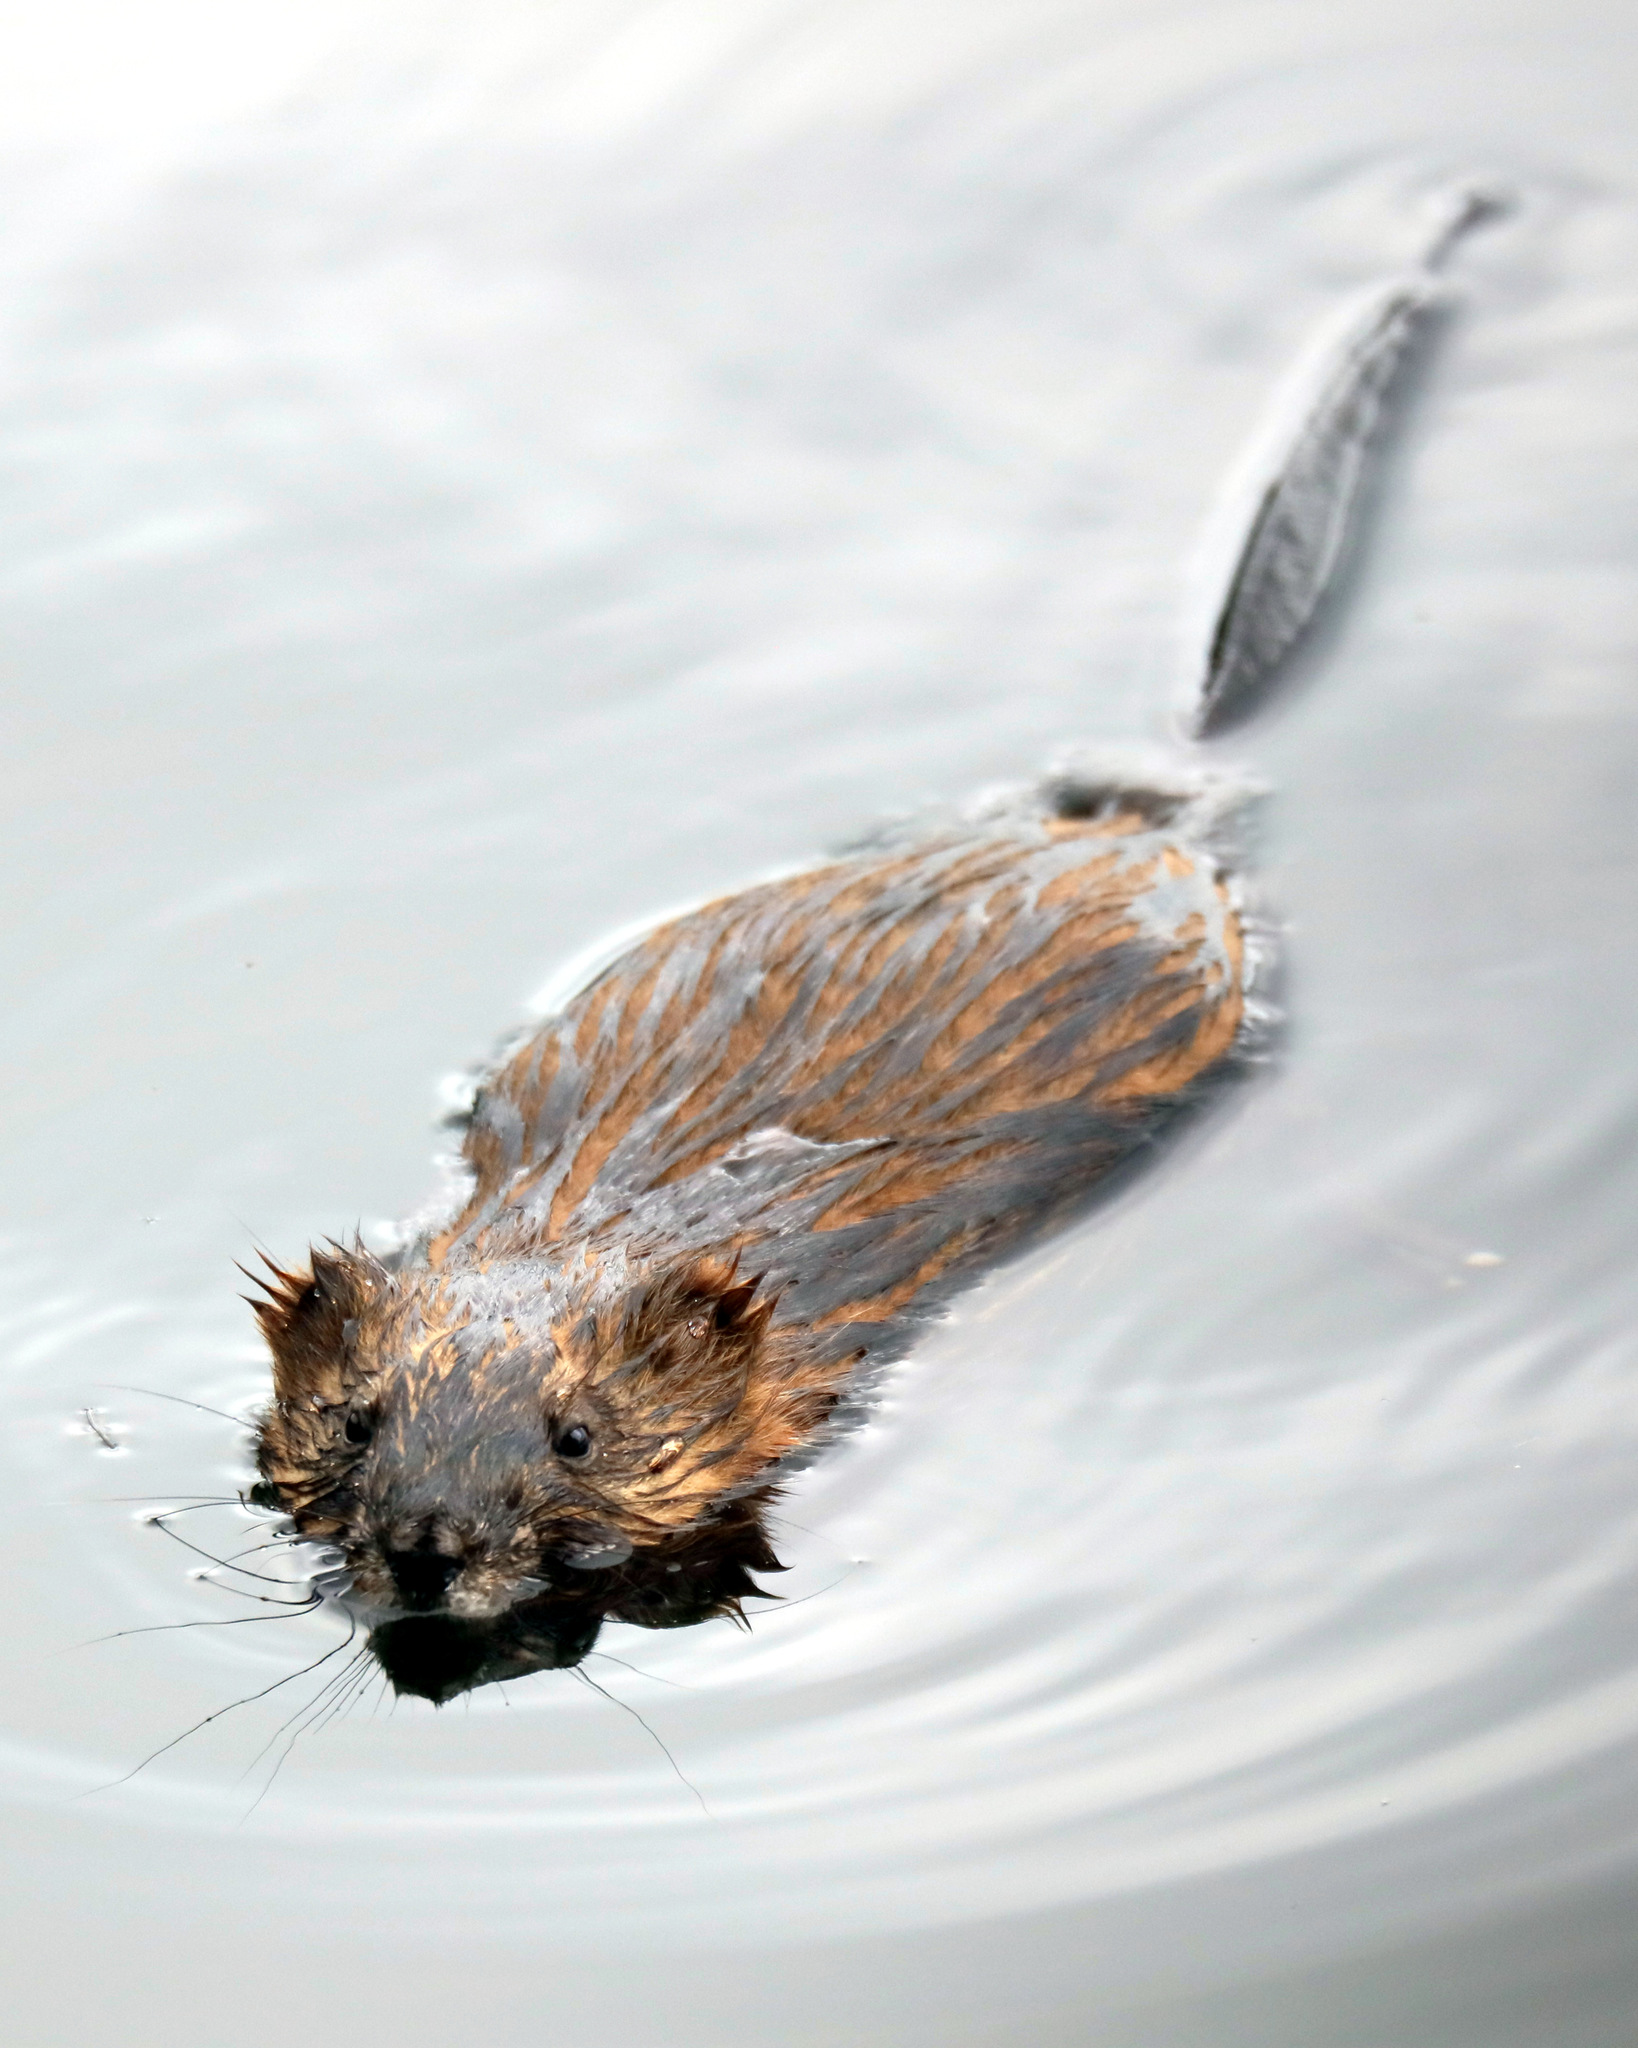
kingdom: Animalia
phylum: Chordata
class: Mammalia
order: Rodentia
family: Cricetidae
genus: Ondatra
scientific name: Ondatra zibethicus
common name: Muskrat
